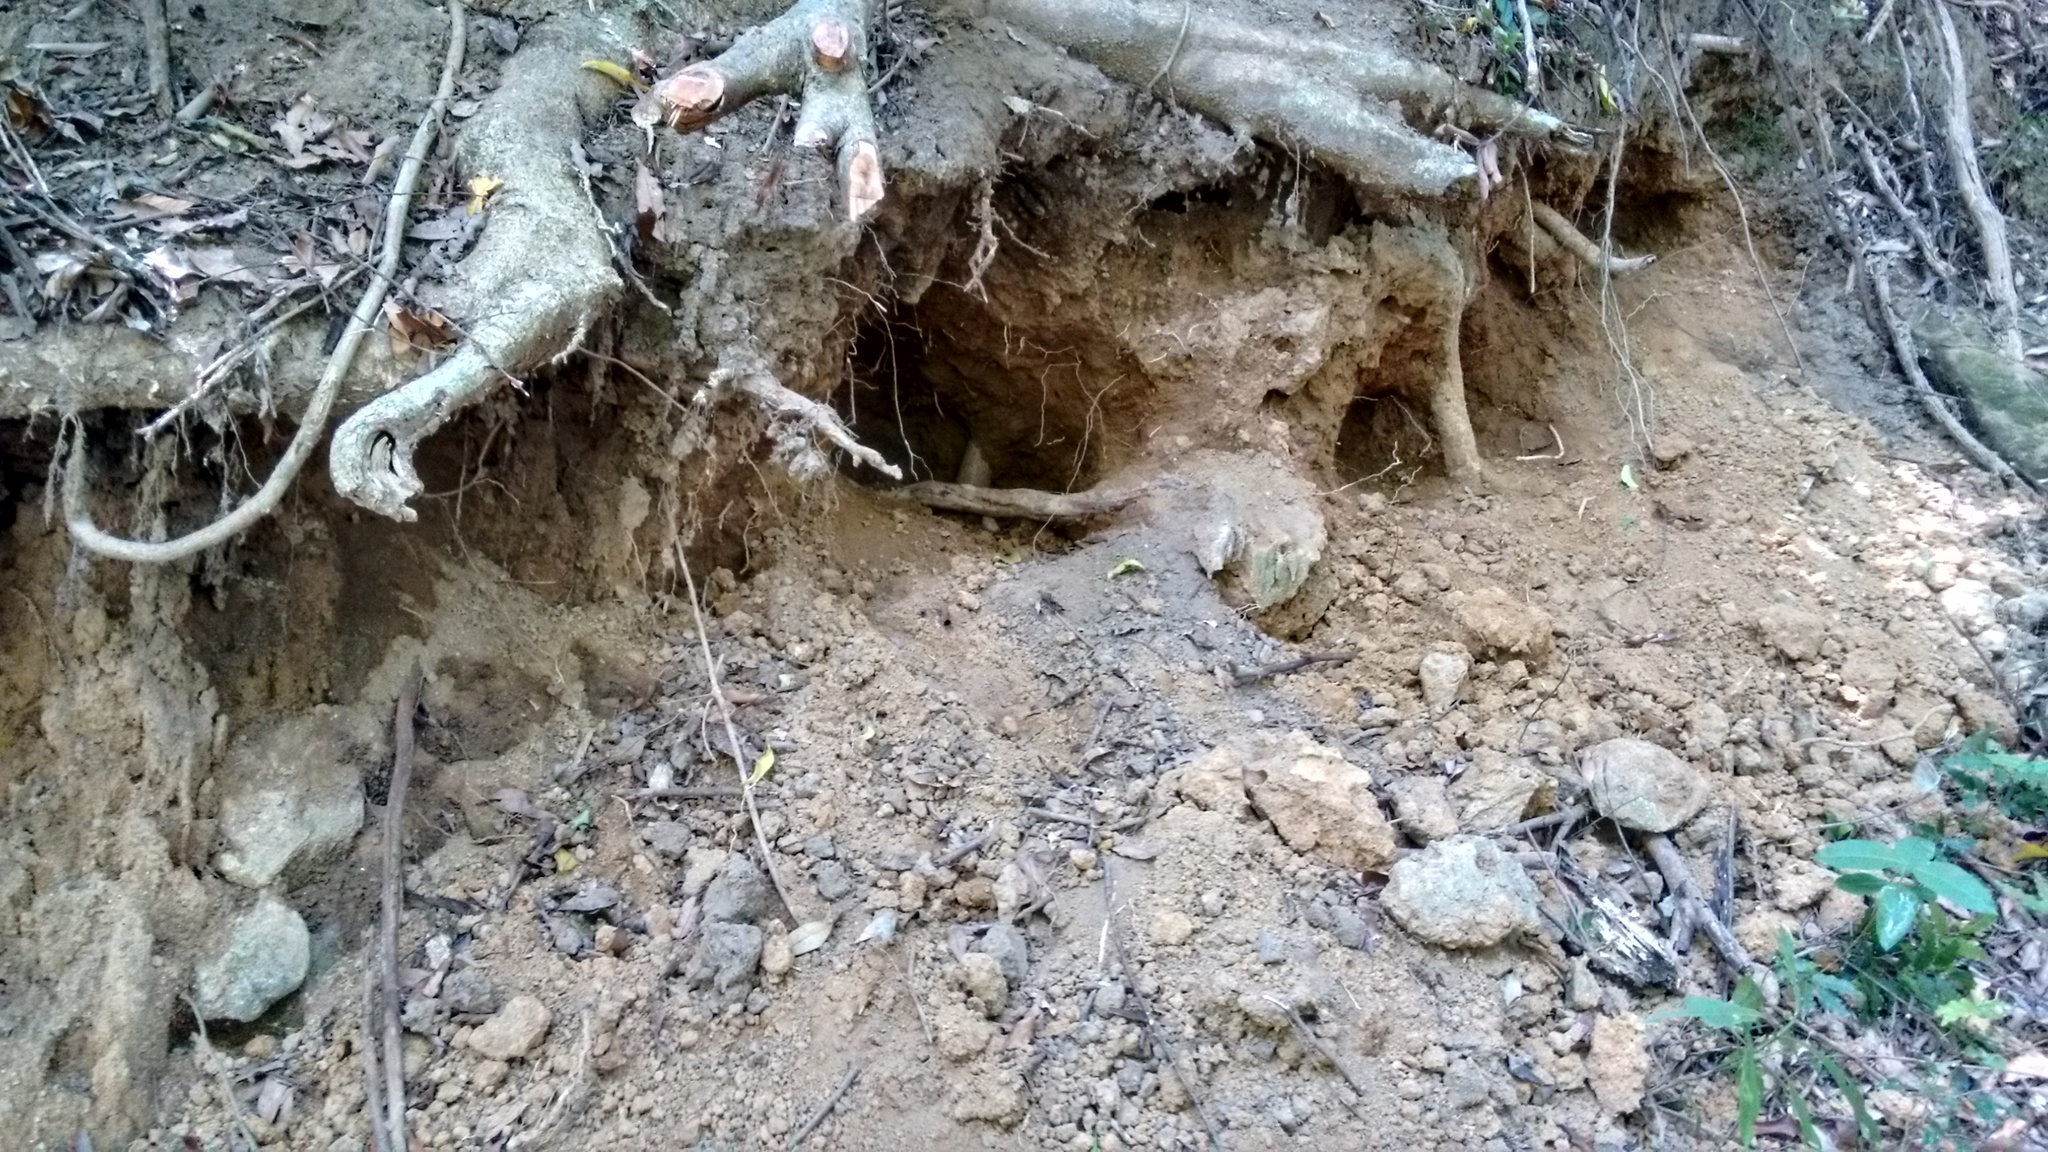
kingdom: Animalia
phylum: Chordata
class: Mammalia
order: Carnivora
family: Ursidae
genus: Melursus
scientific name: Melursus ursinus
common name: Sloth bear
